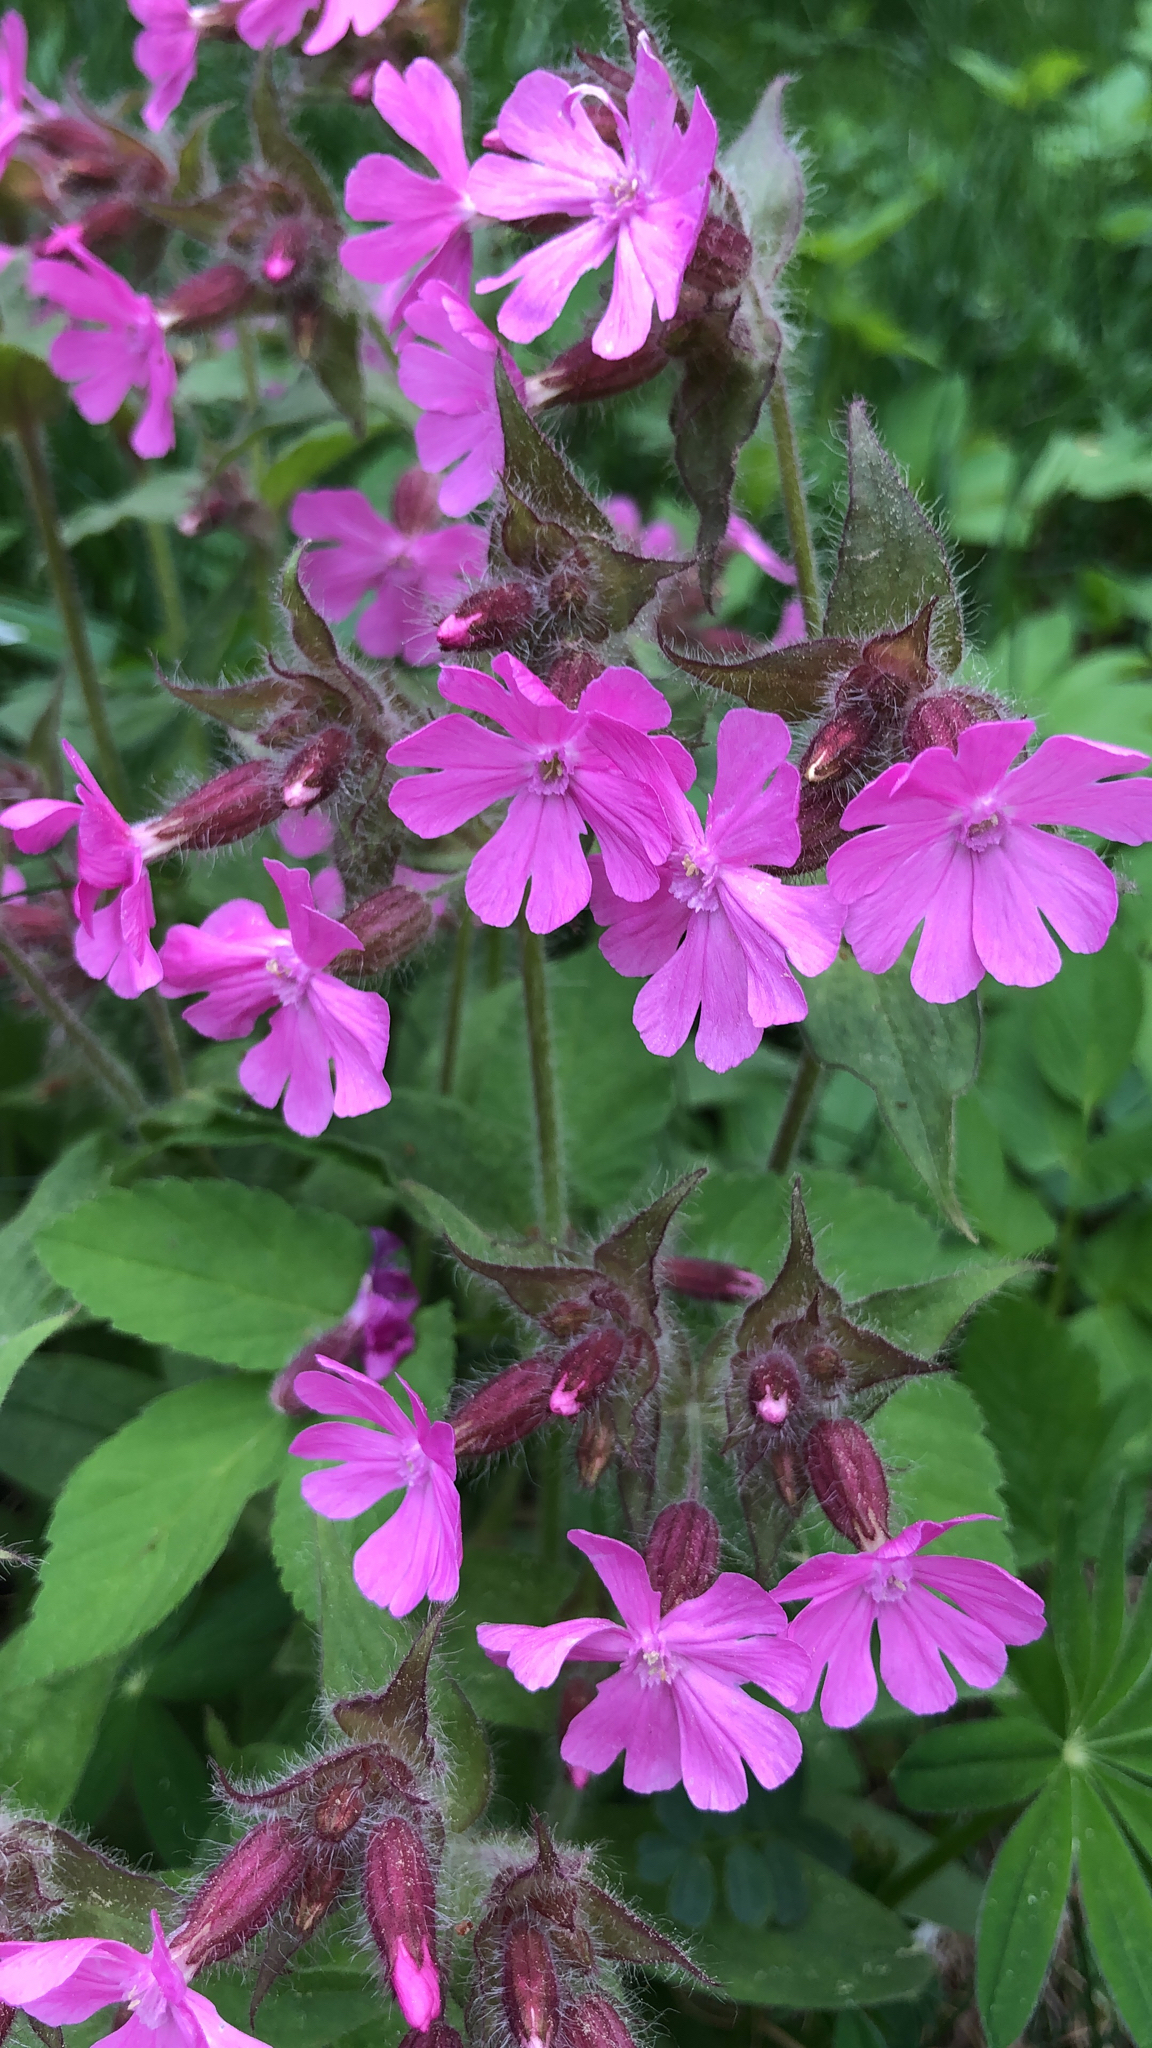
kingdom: Plantae
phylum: Tracheophyta
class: Magnoliopsida
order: Caryophyllales
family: Caryophyllaceae
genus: Silene
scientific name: Silene dioica
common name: Red campion
